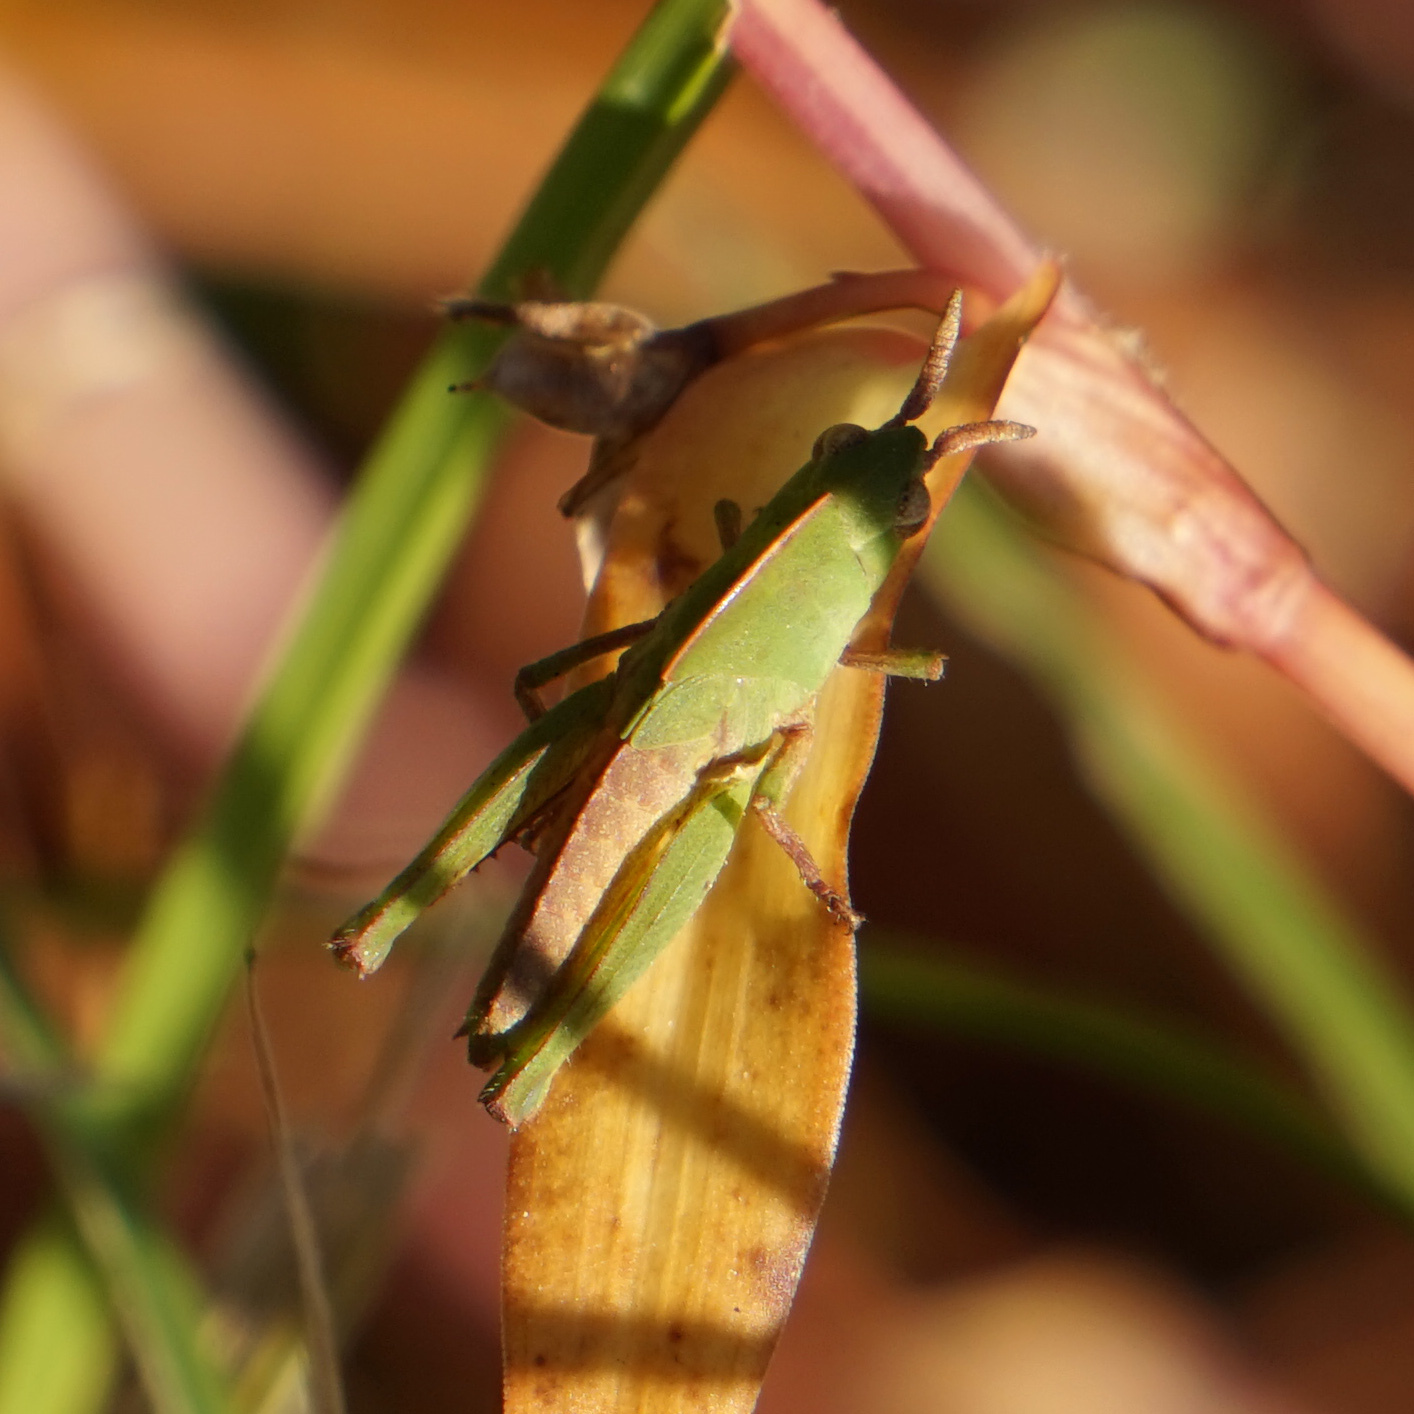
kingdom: Animalia
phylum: Arthropoda
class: Insecta
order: Orthoptera
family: Acrididae
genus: Chortophaga
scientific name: Chortophaga viridifasciata
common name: Green-striped grasshopper
